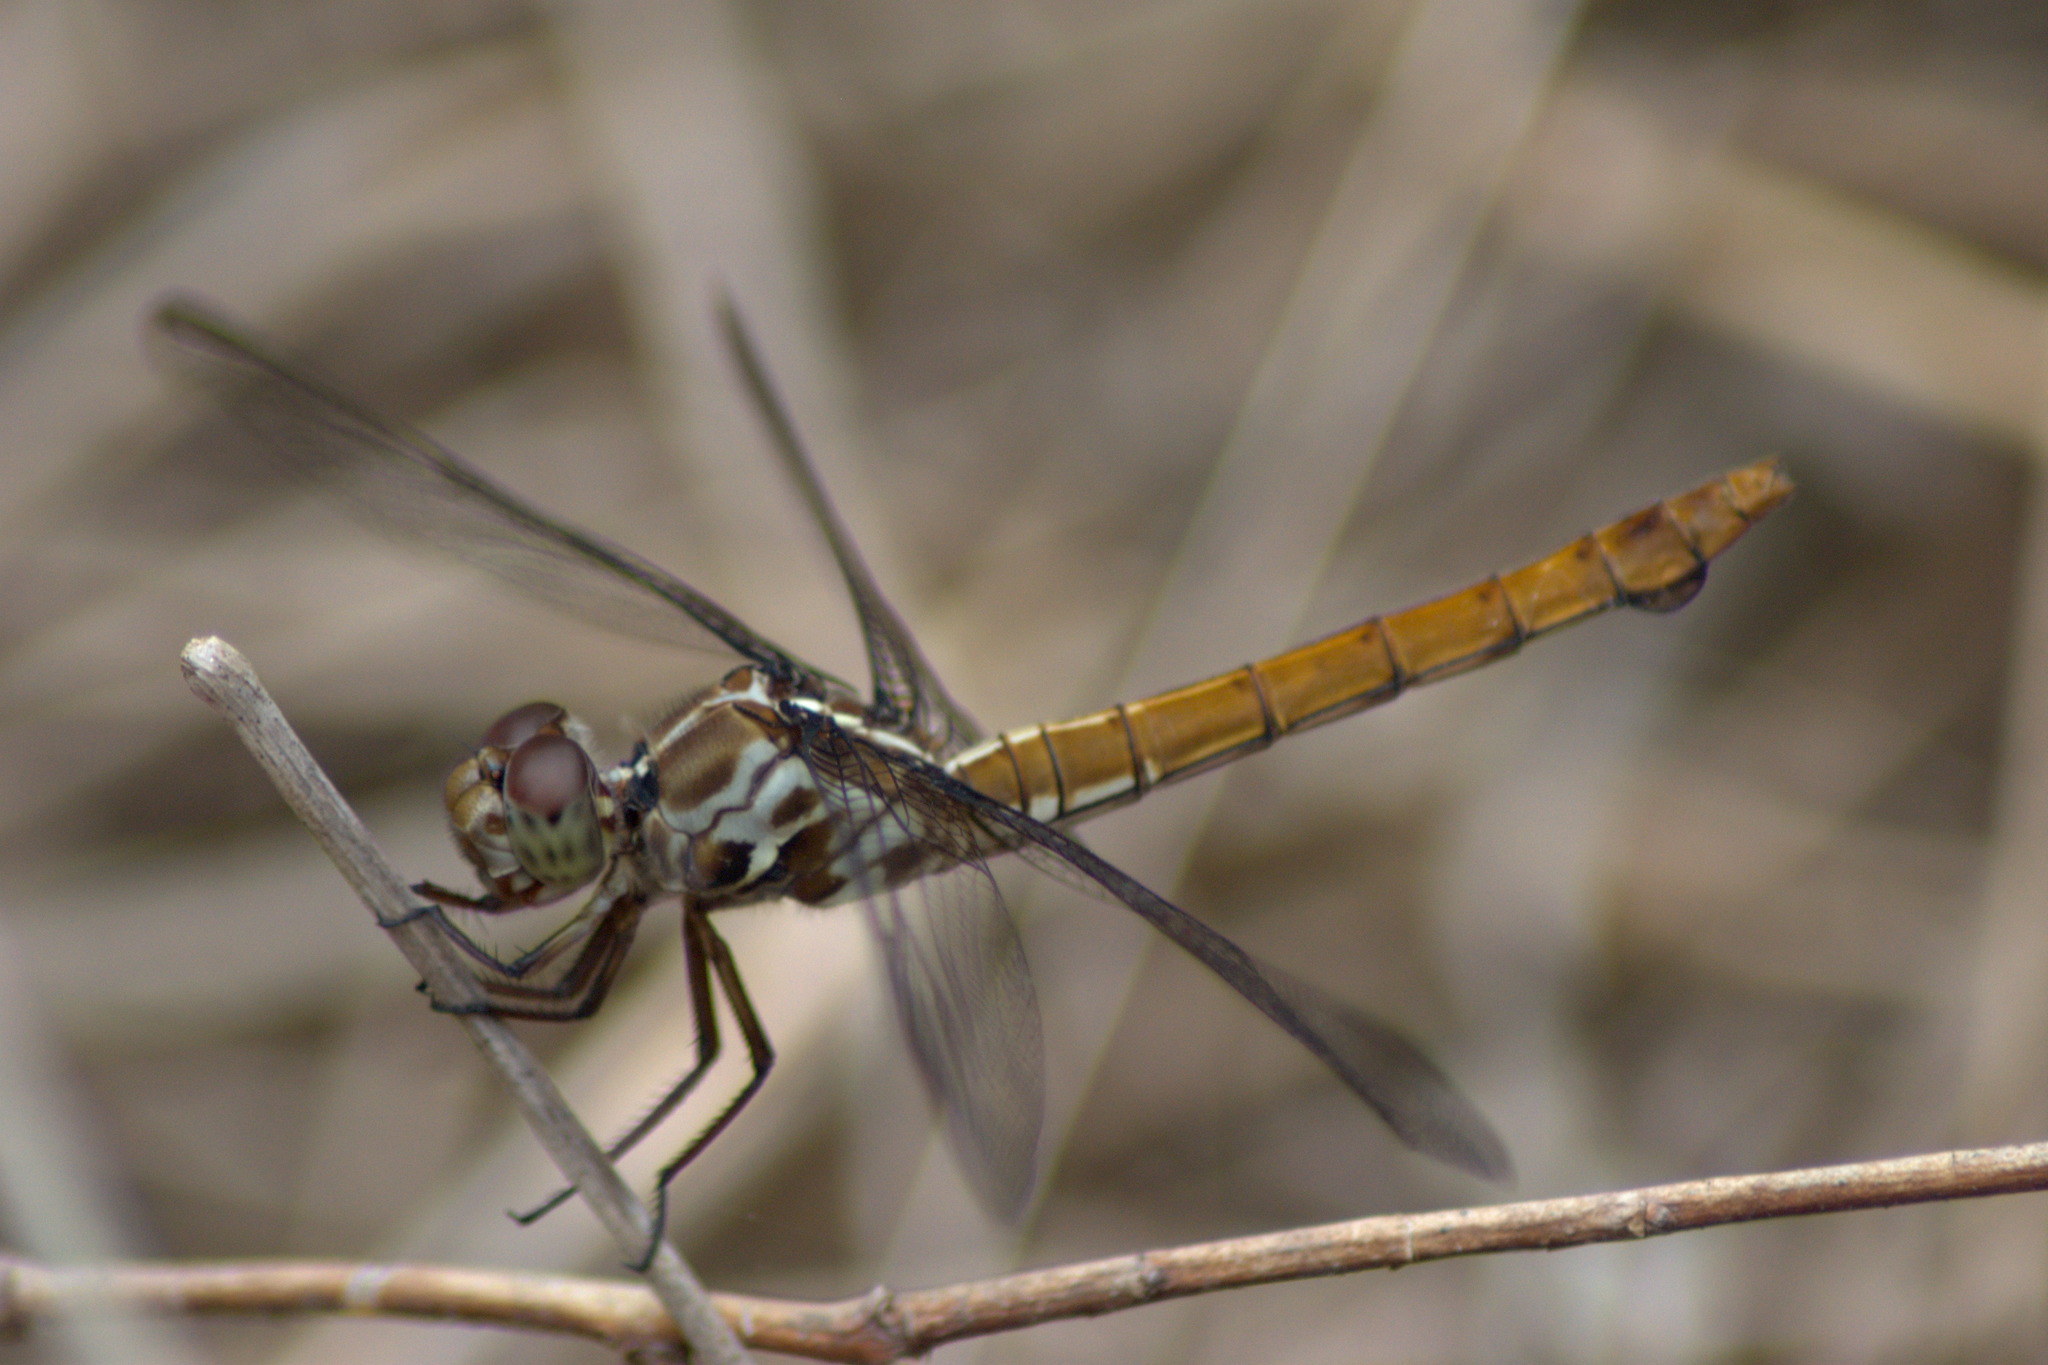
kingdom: Animalia
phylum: Arthropoda
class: Insecta
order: Odonata
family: Libellulidae
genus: Orthemis
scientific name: Orthemis ferruginea
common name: Roseate skimmer
